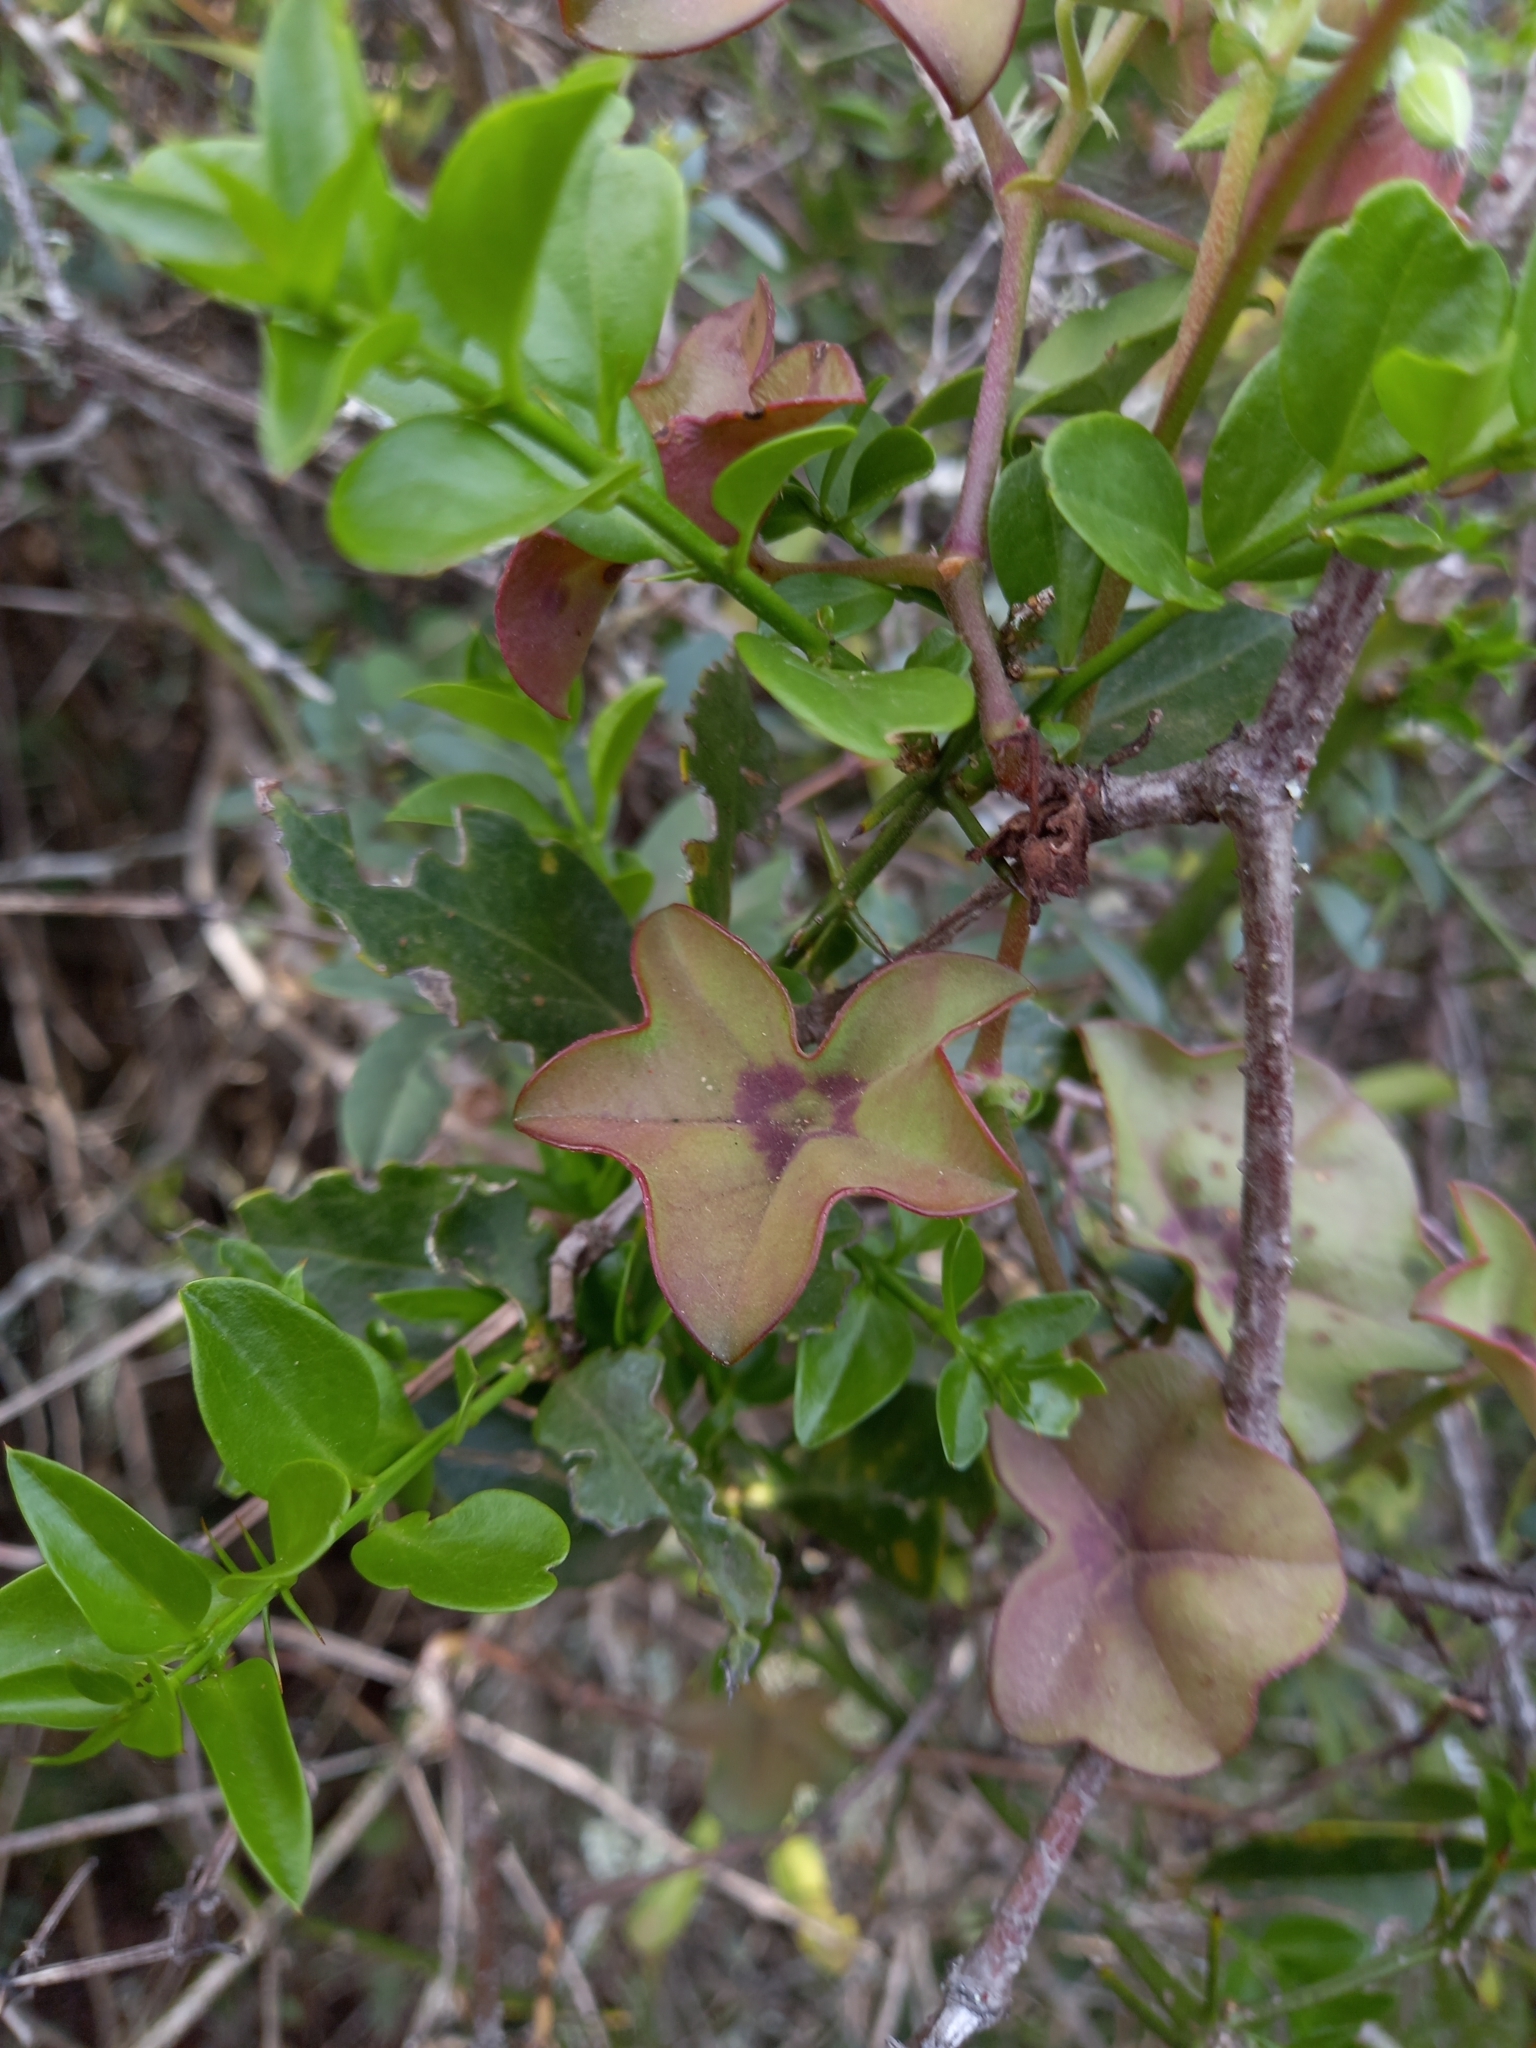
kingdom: Plantae
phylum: Tracheophyta
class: Magnoliopsida
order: Geraniales
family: Geraniaceae
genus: Pelargonium
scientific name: Pelargonium peltatum
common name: Ivyleaf geranium
